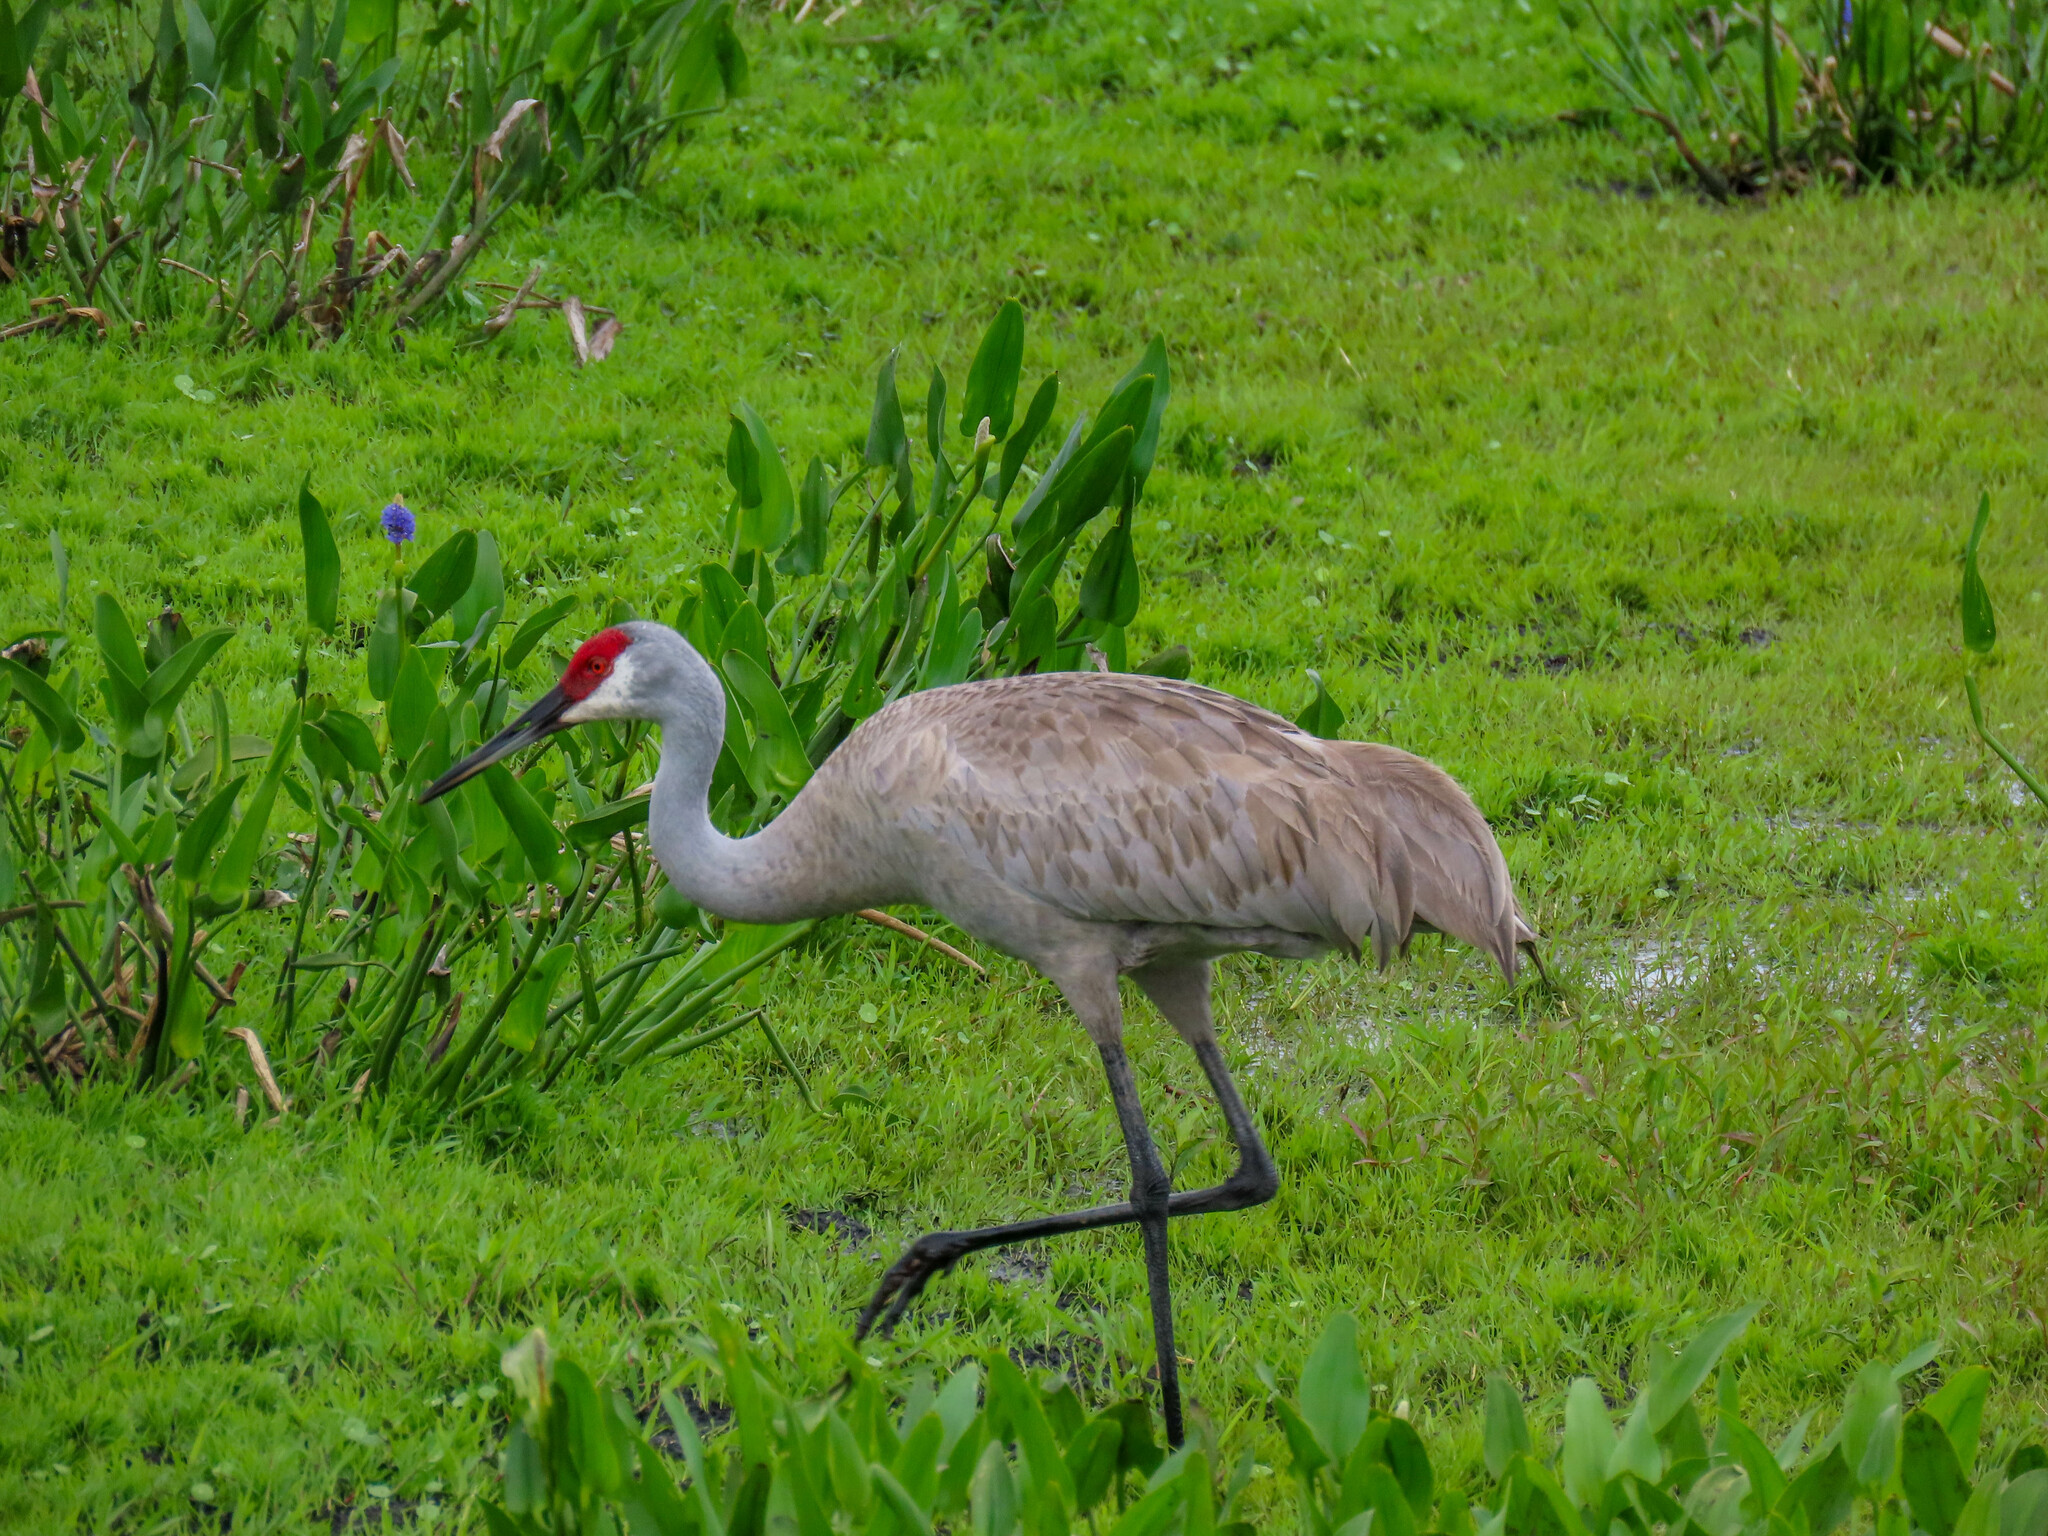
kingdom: Animalia
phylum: Chordata
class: Aves
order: Gruiformes
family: Gruidae
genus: Grus
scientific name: Grus canadensis
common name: Sandhill crane
